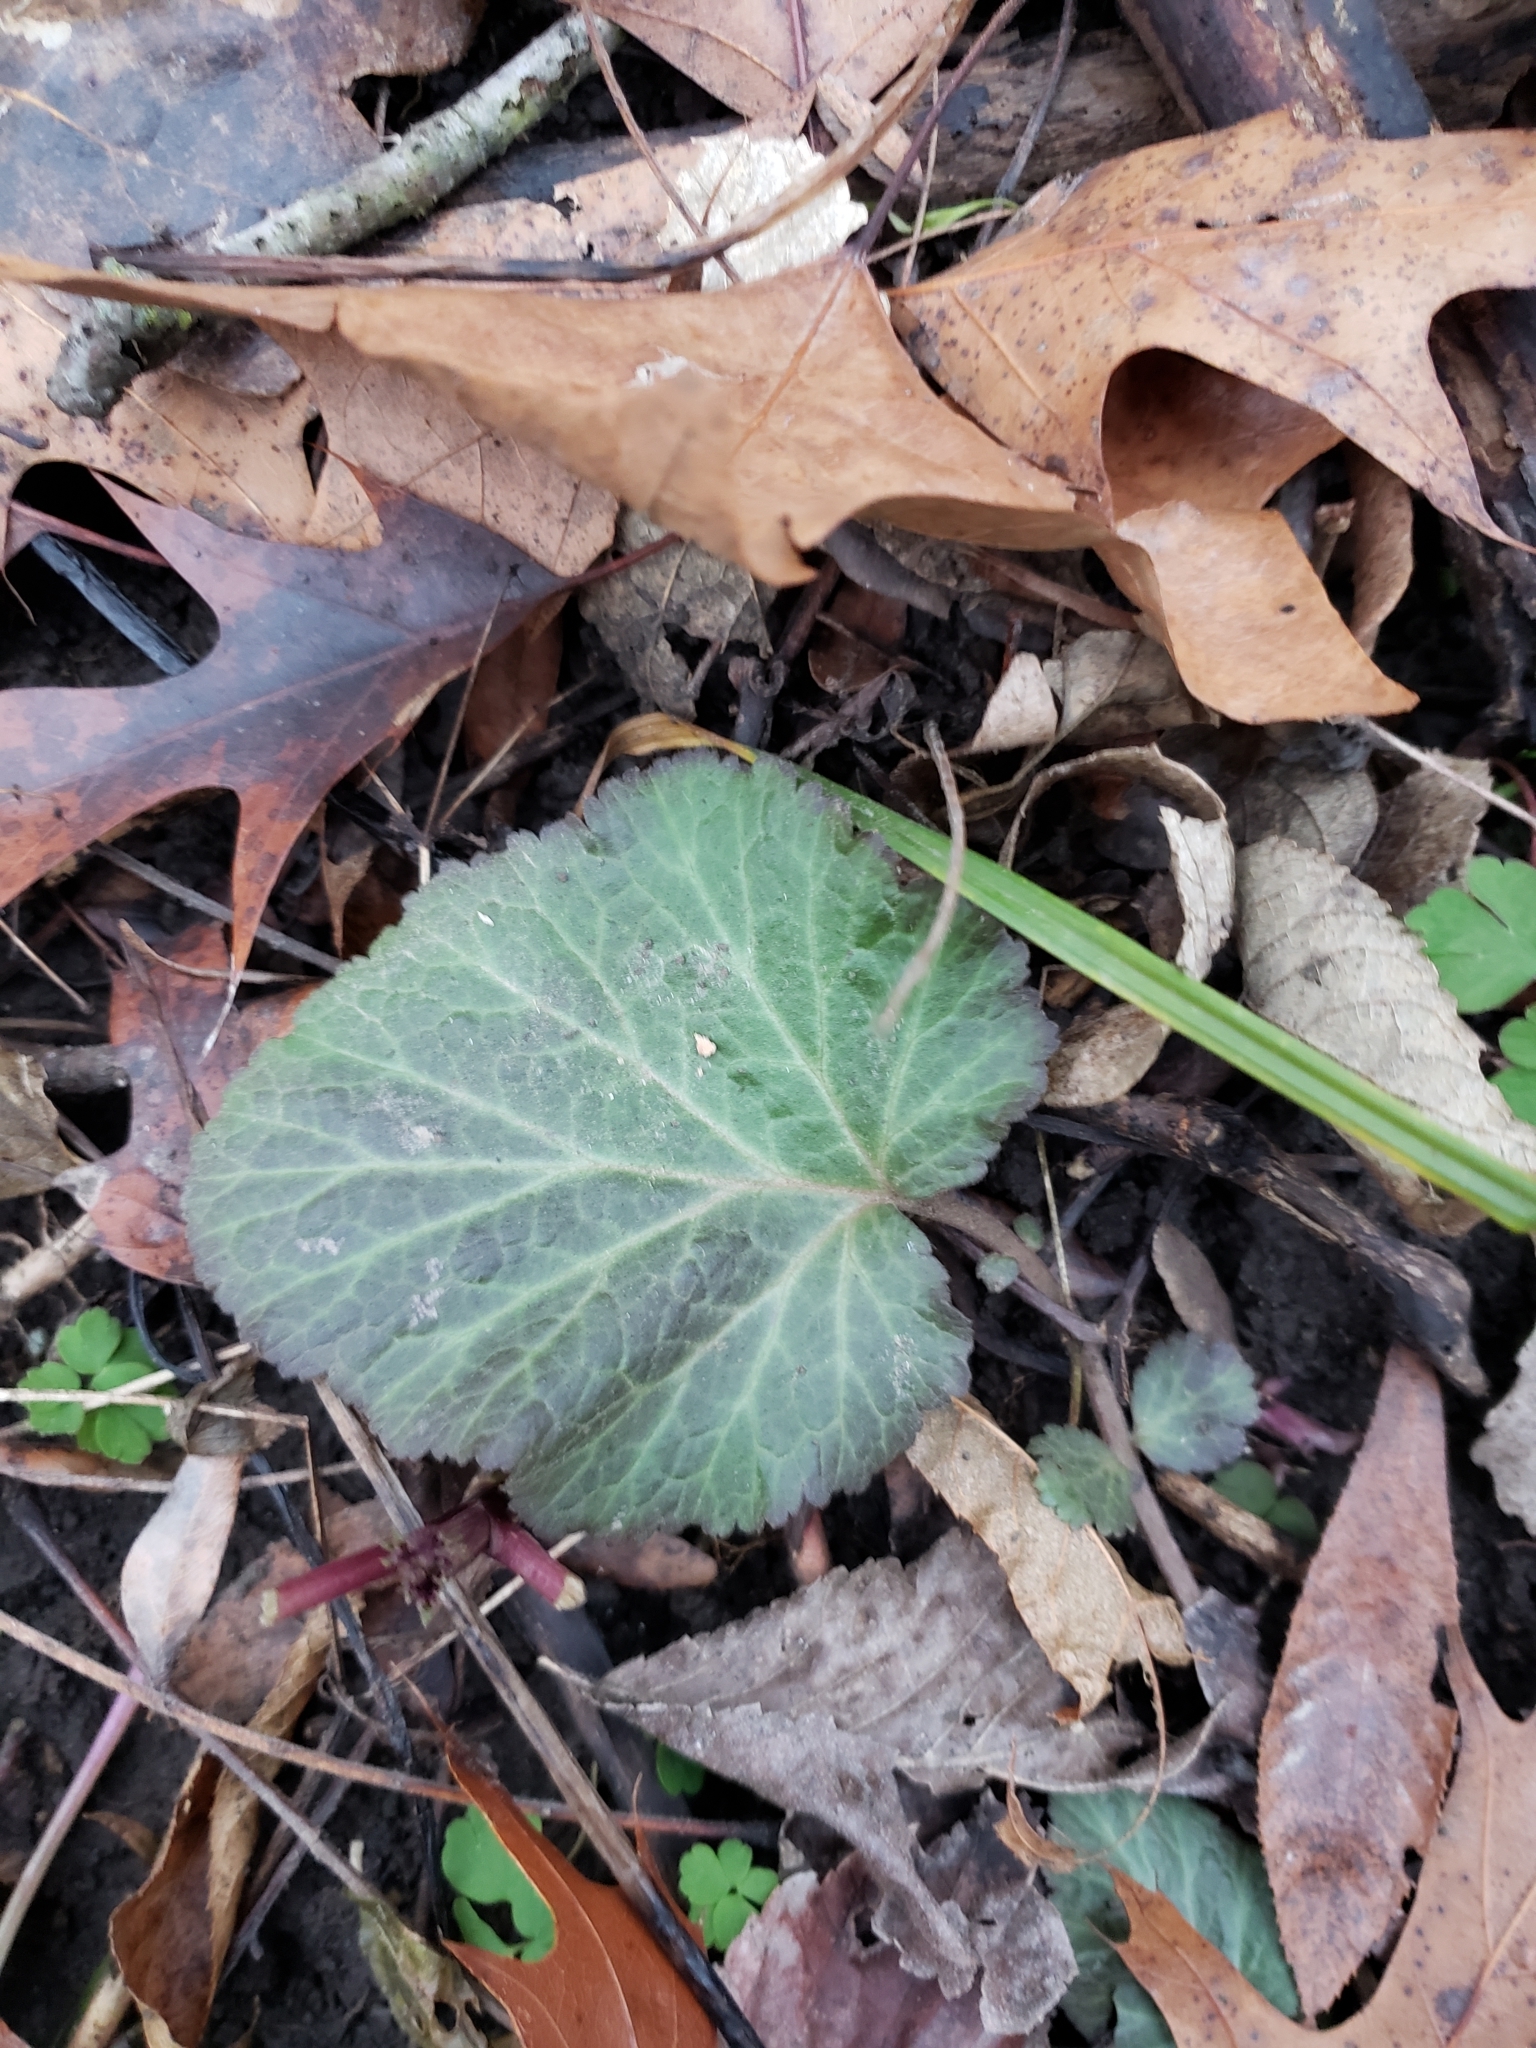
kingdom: Plantae
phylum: Tracheophyta
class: Magnoliopsida
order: Rosales
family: Rosaceae
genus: Geum
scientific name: Geum canadense
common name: White avens
